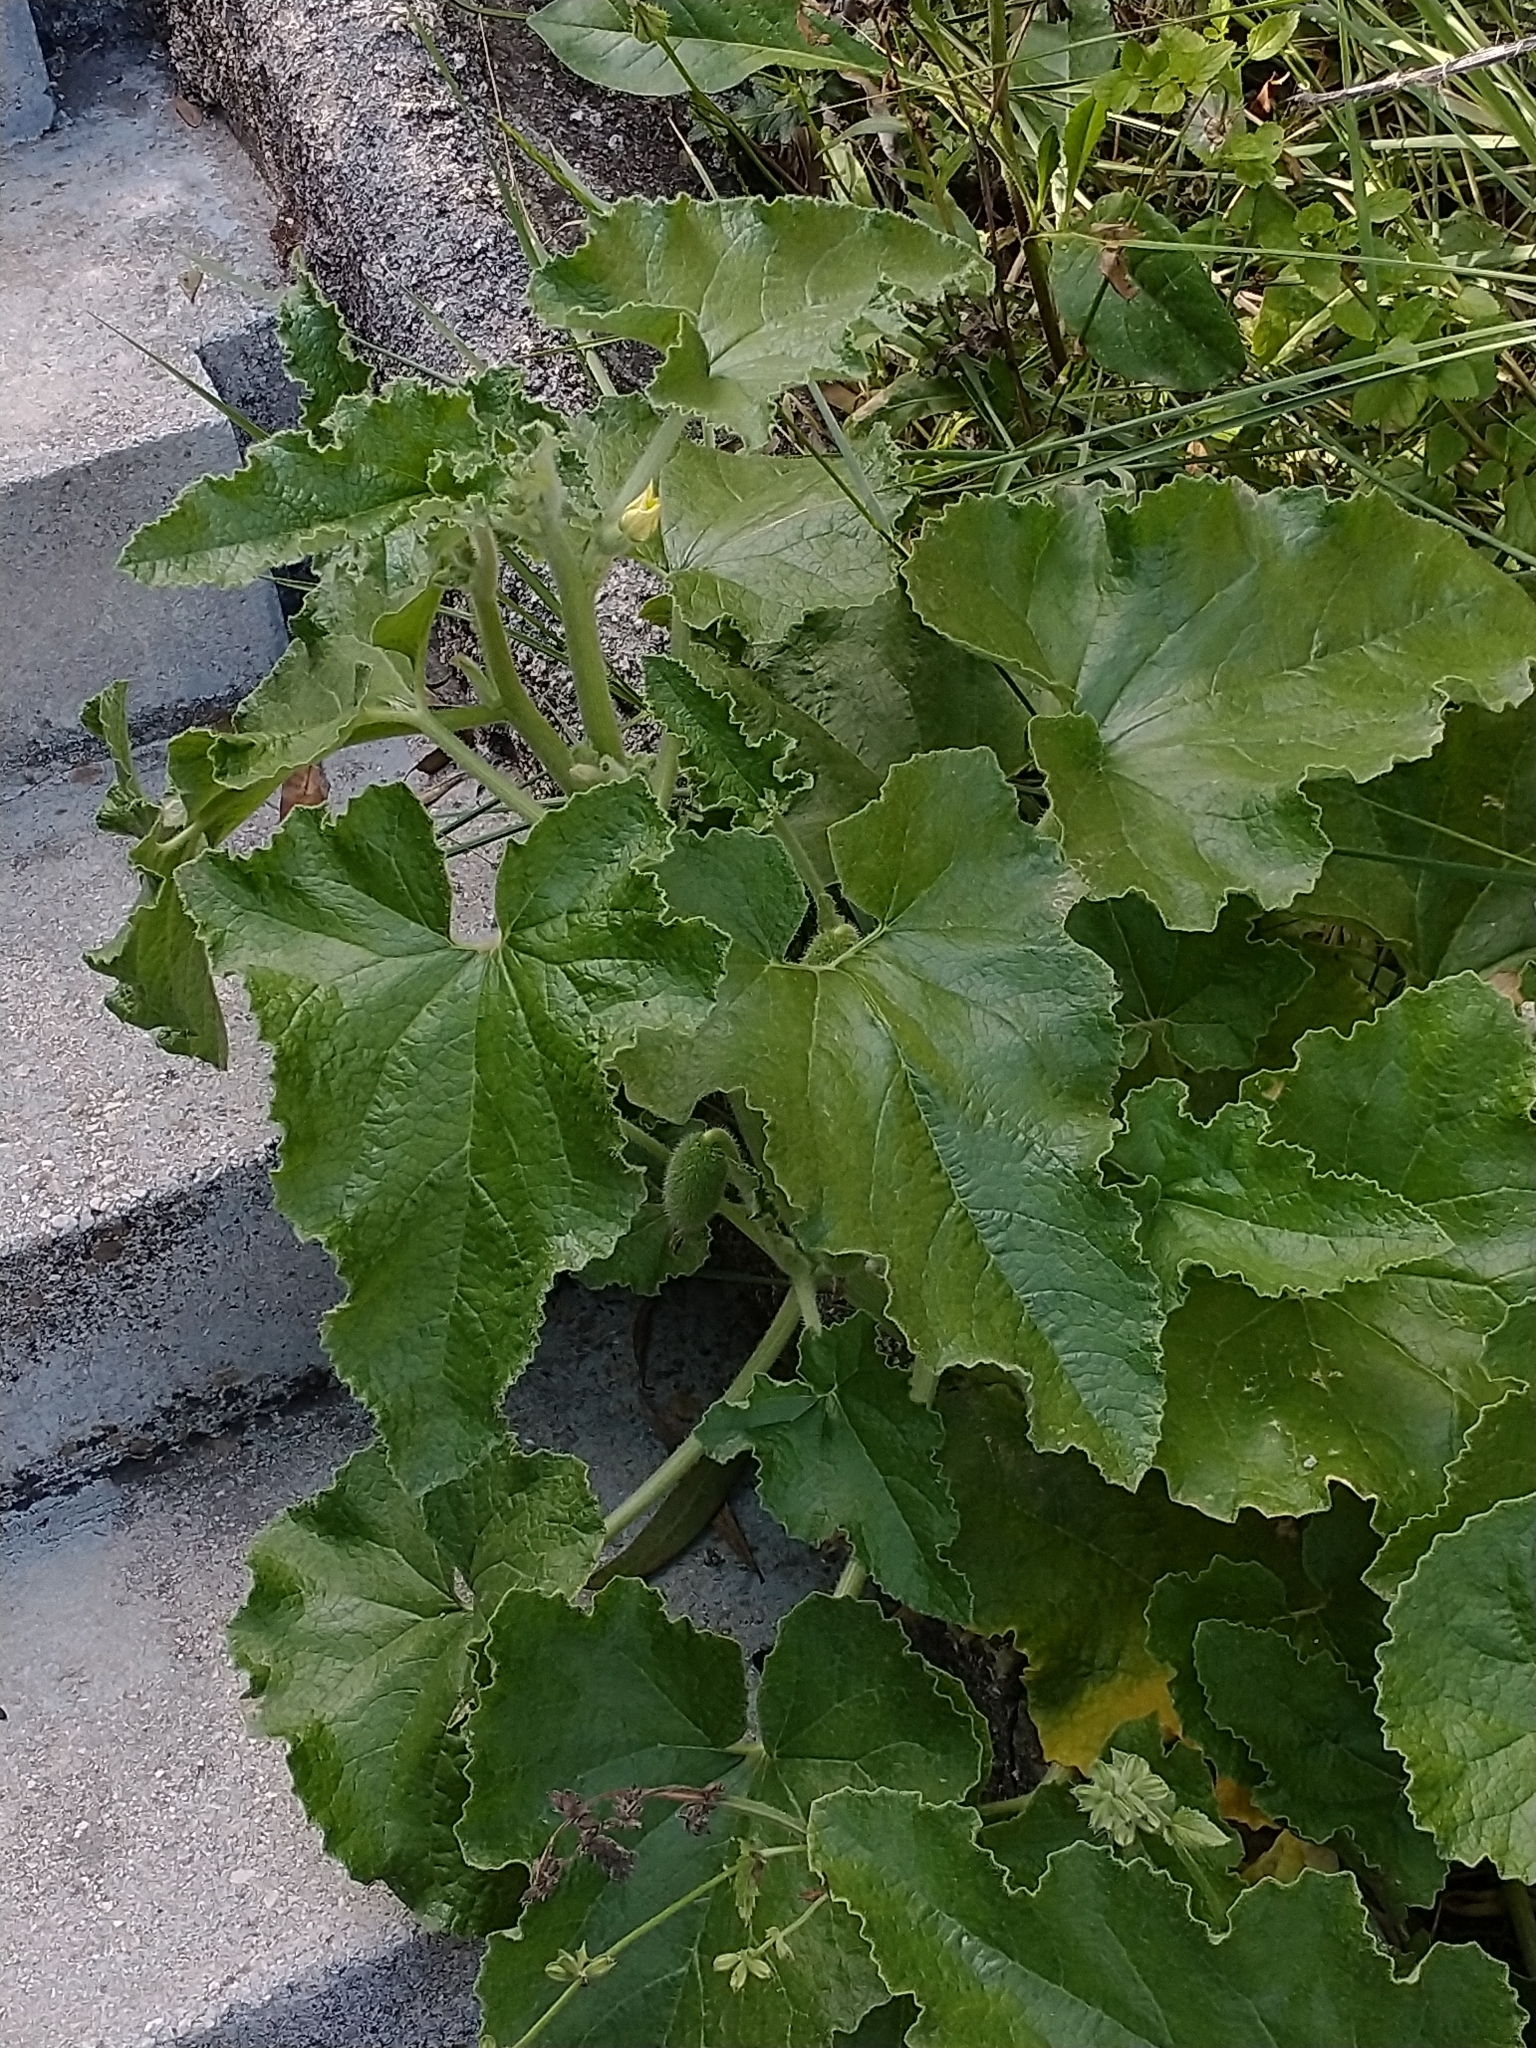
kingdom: Plantae
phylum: Tracheophyta
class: Magnoliopsida
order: Cucurbitales
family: Cucurbitaceae
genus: Ecballium
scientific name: Ecballium elaterium
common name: Squirting cucumber
